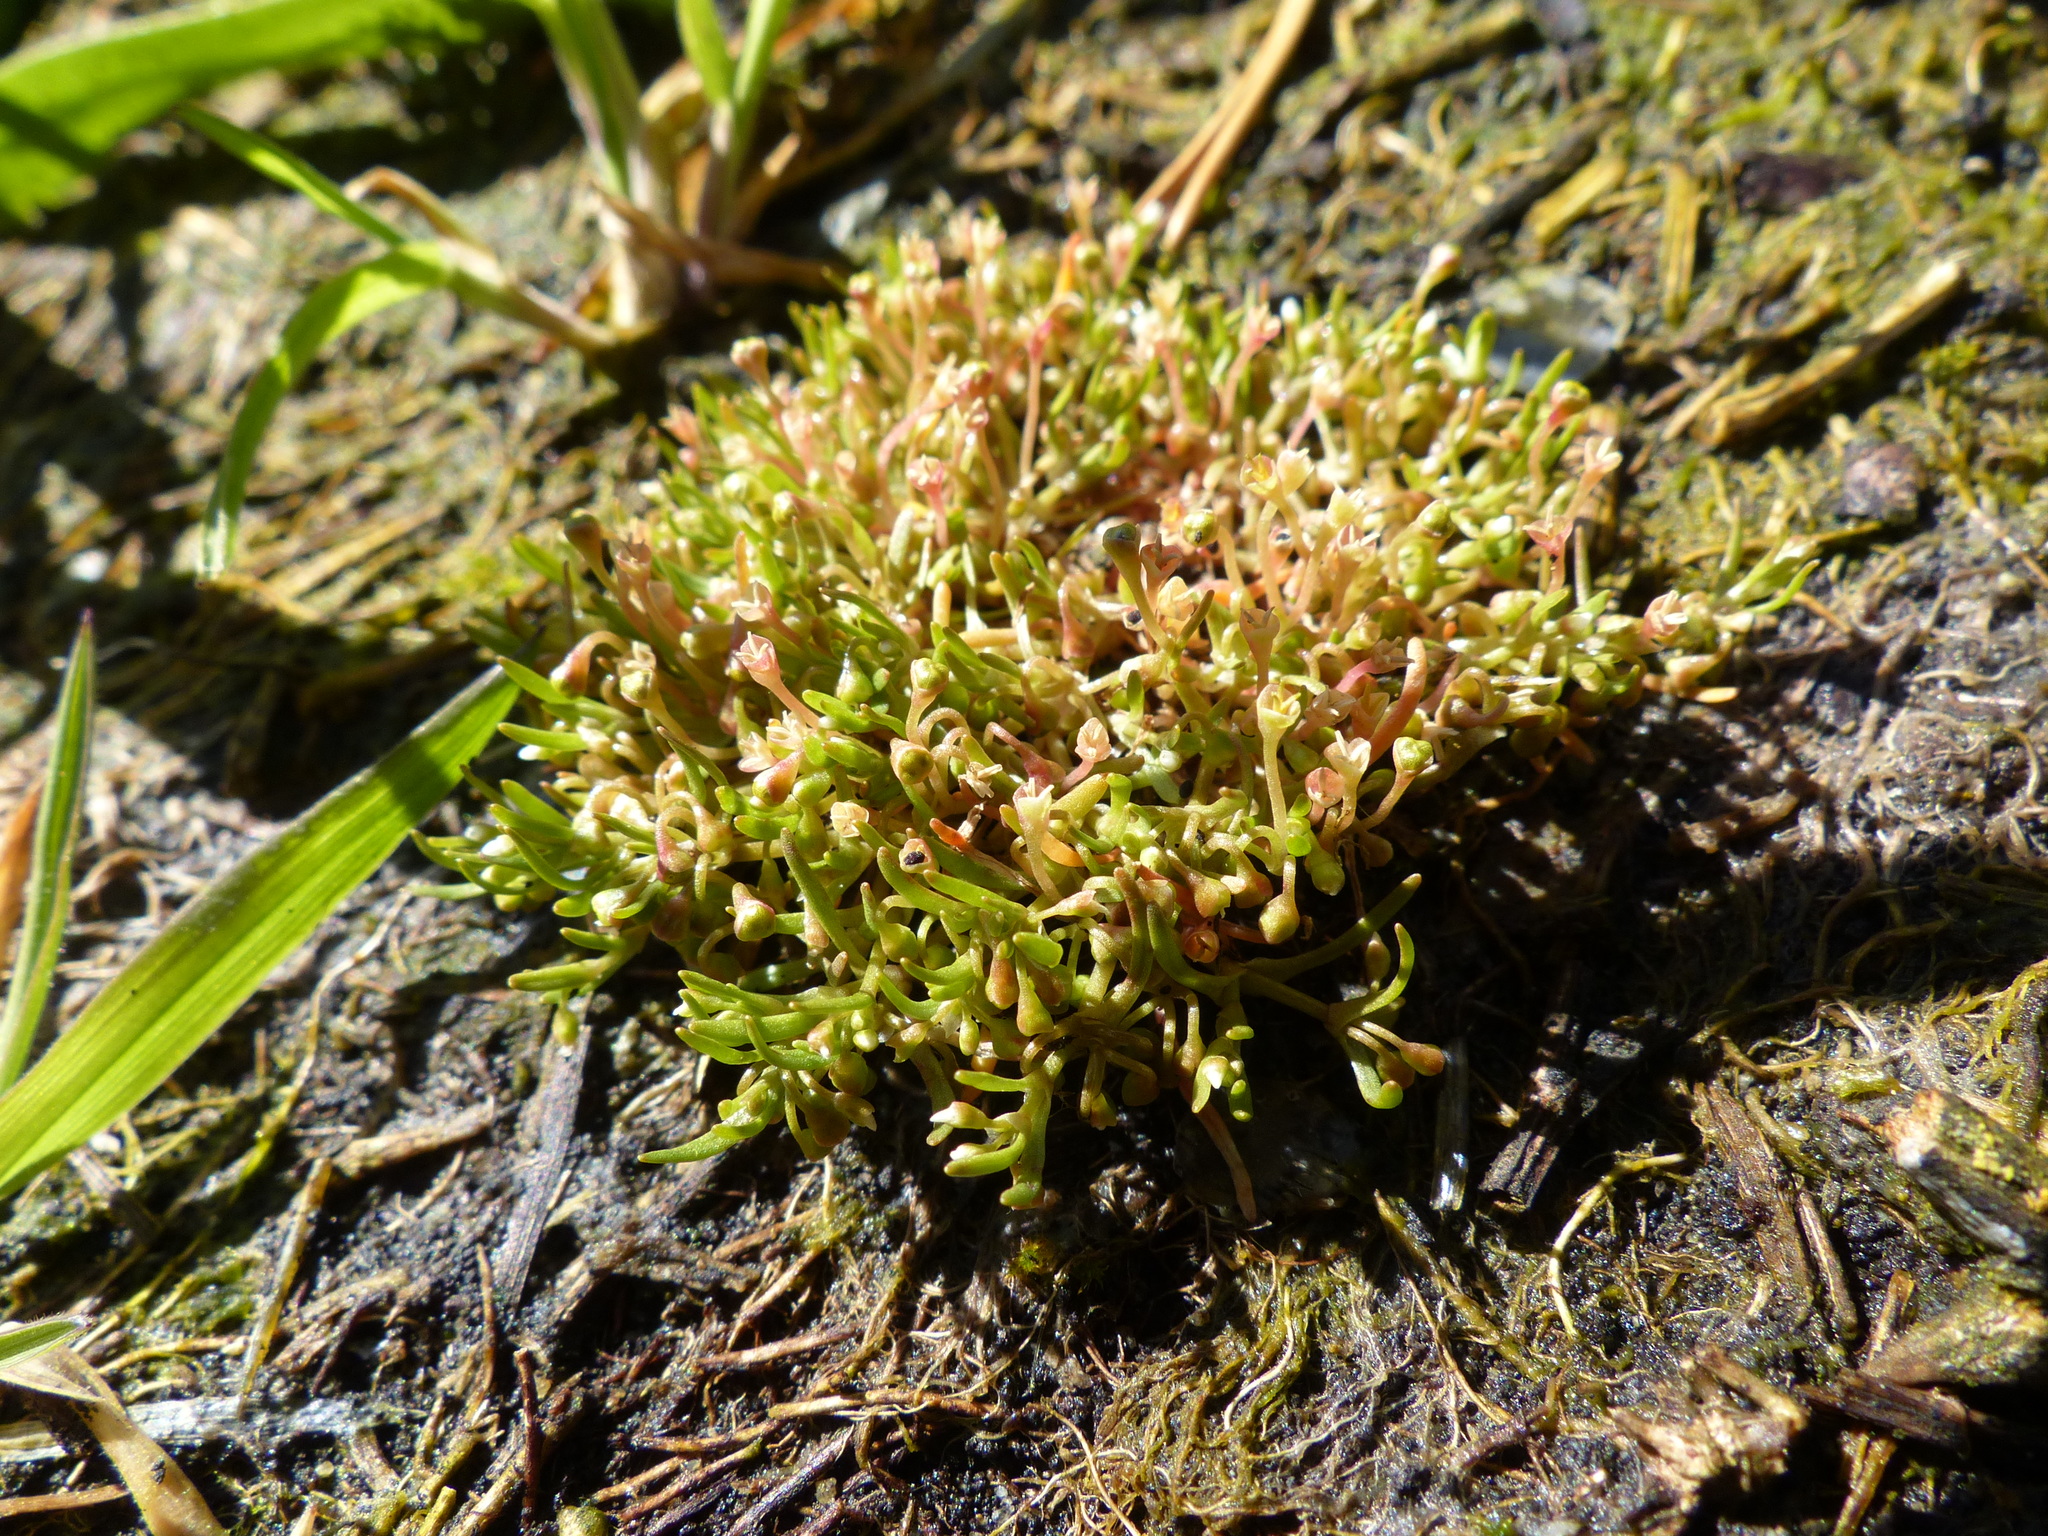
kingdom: Plantae
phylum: Tracheophyta
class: Magnoliopsida
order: Caryophyllales
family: Montiaceae
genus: Montia
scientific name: Montia howellii
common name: Howell's miner's-lettuce
